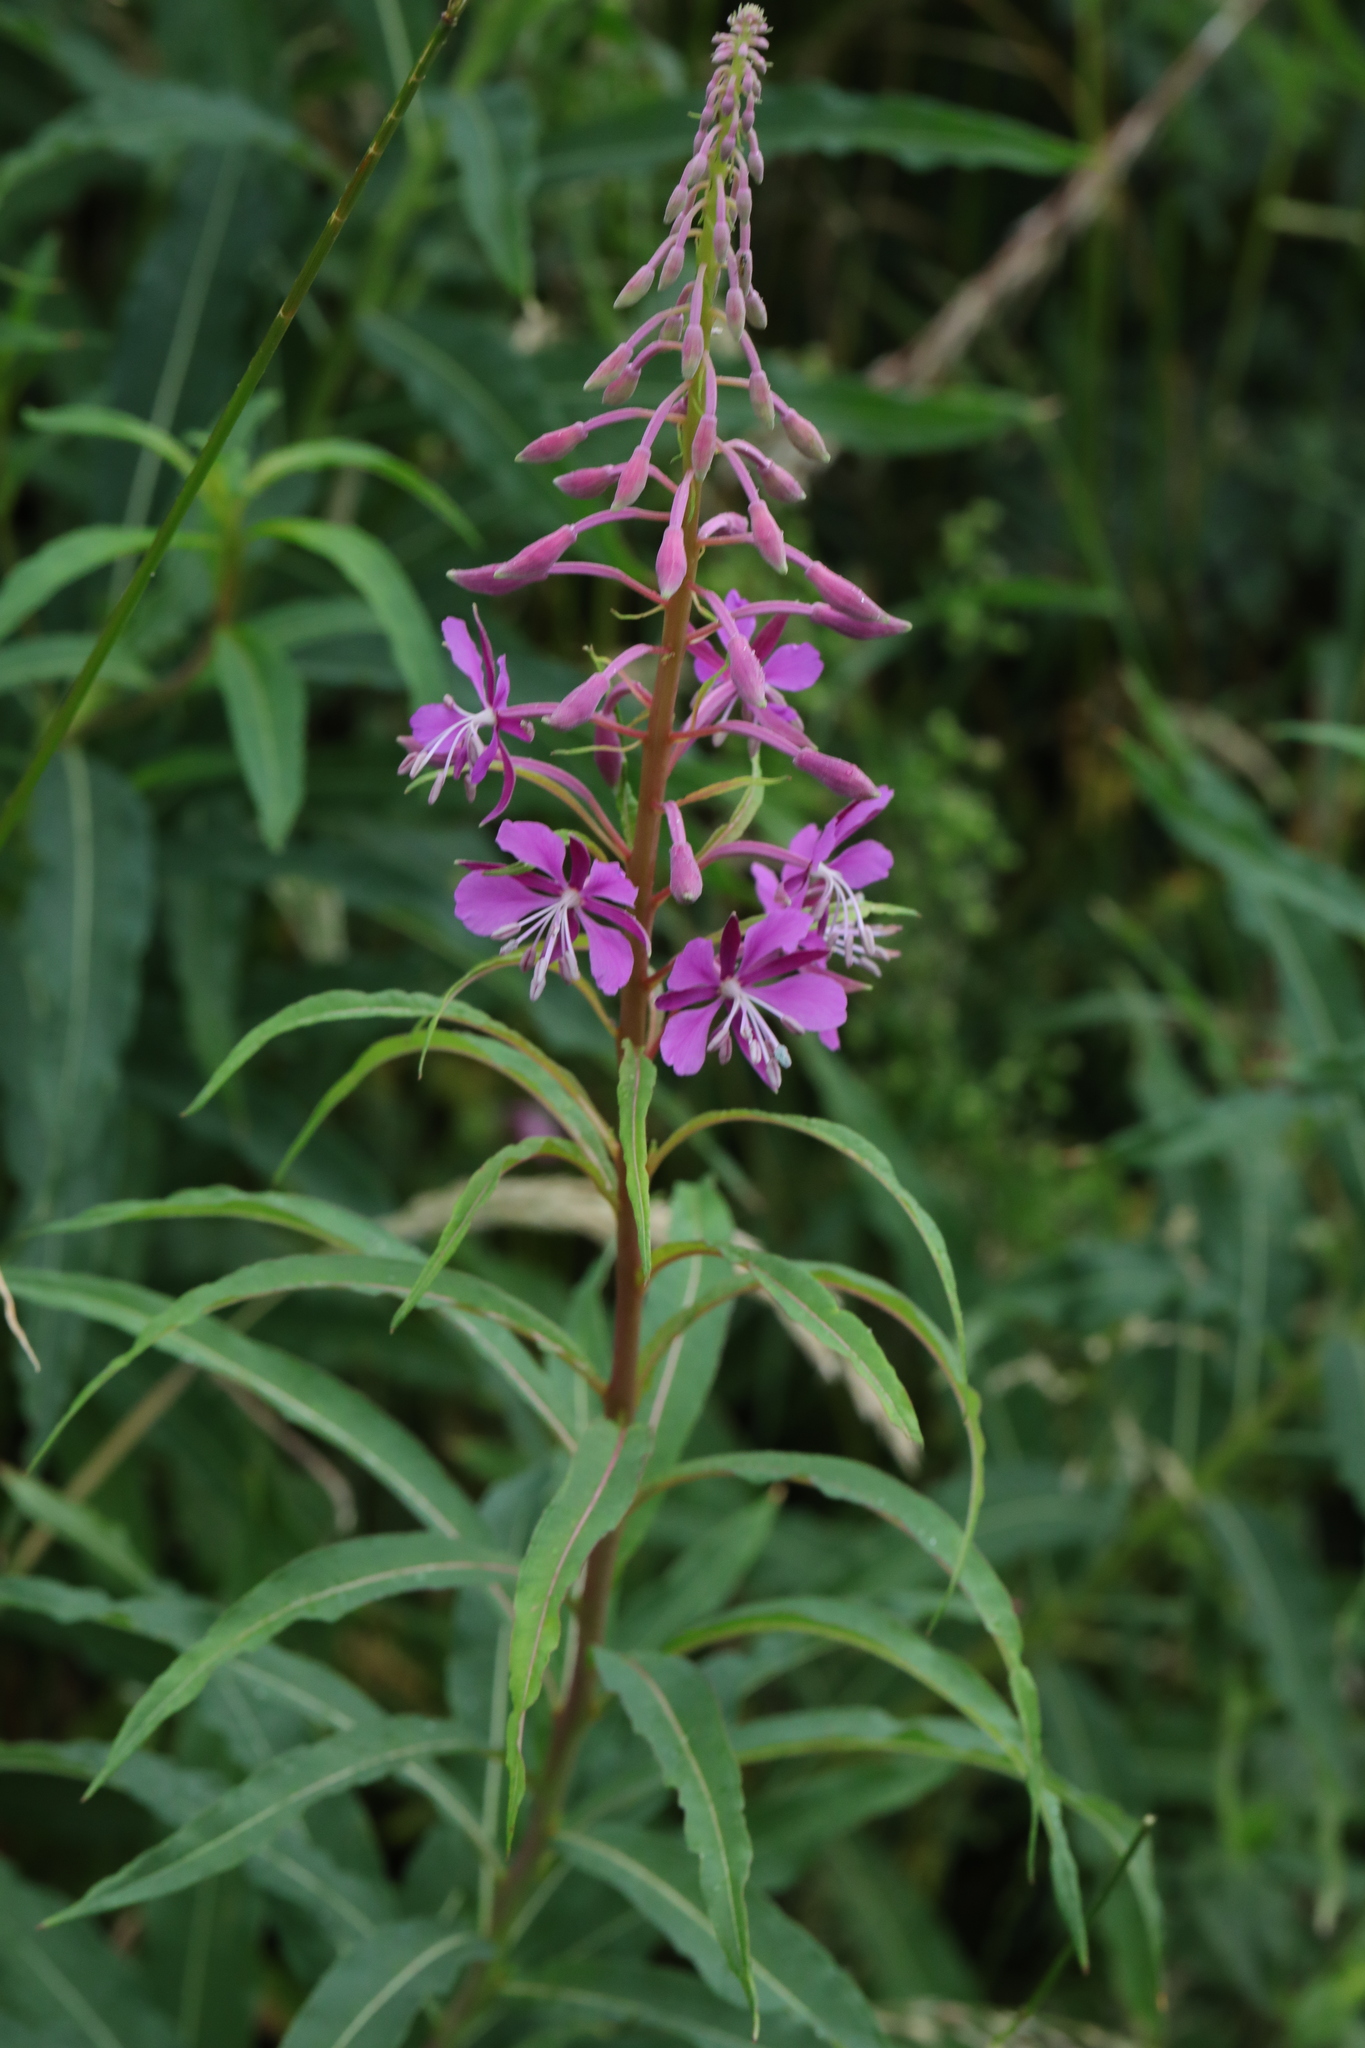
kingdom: Plantae
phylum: Tracheophyta
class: Magnoliopsida
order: Myrtales
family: Onagraceae
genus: Chamaenerion
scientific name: Chamaenerion angustifolium
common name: Fireweed
